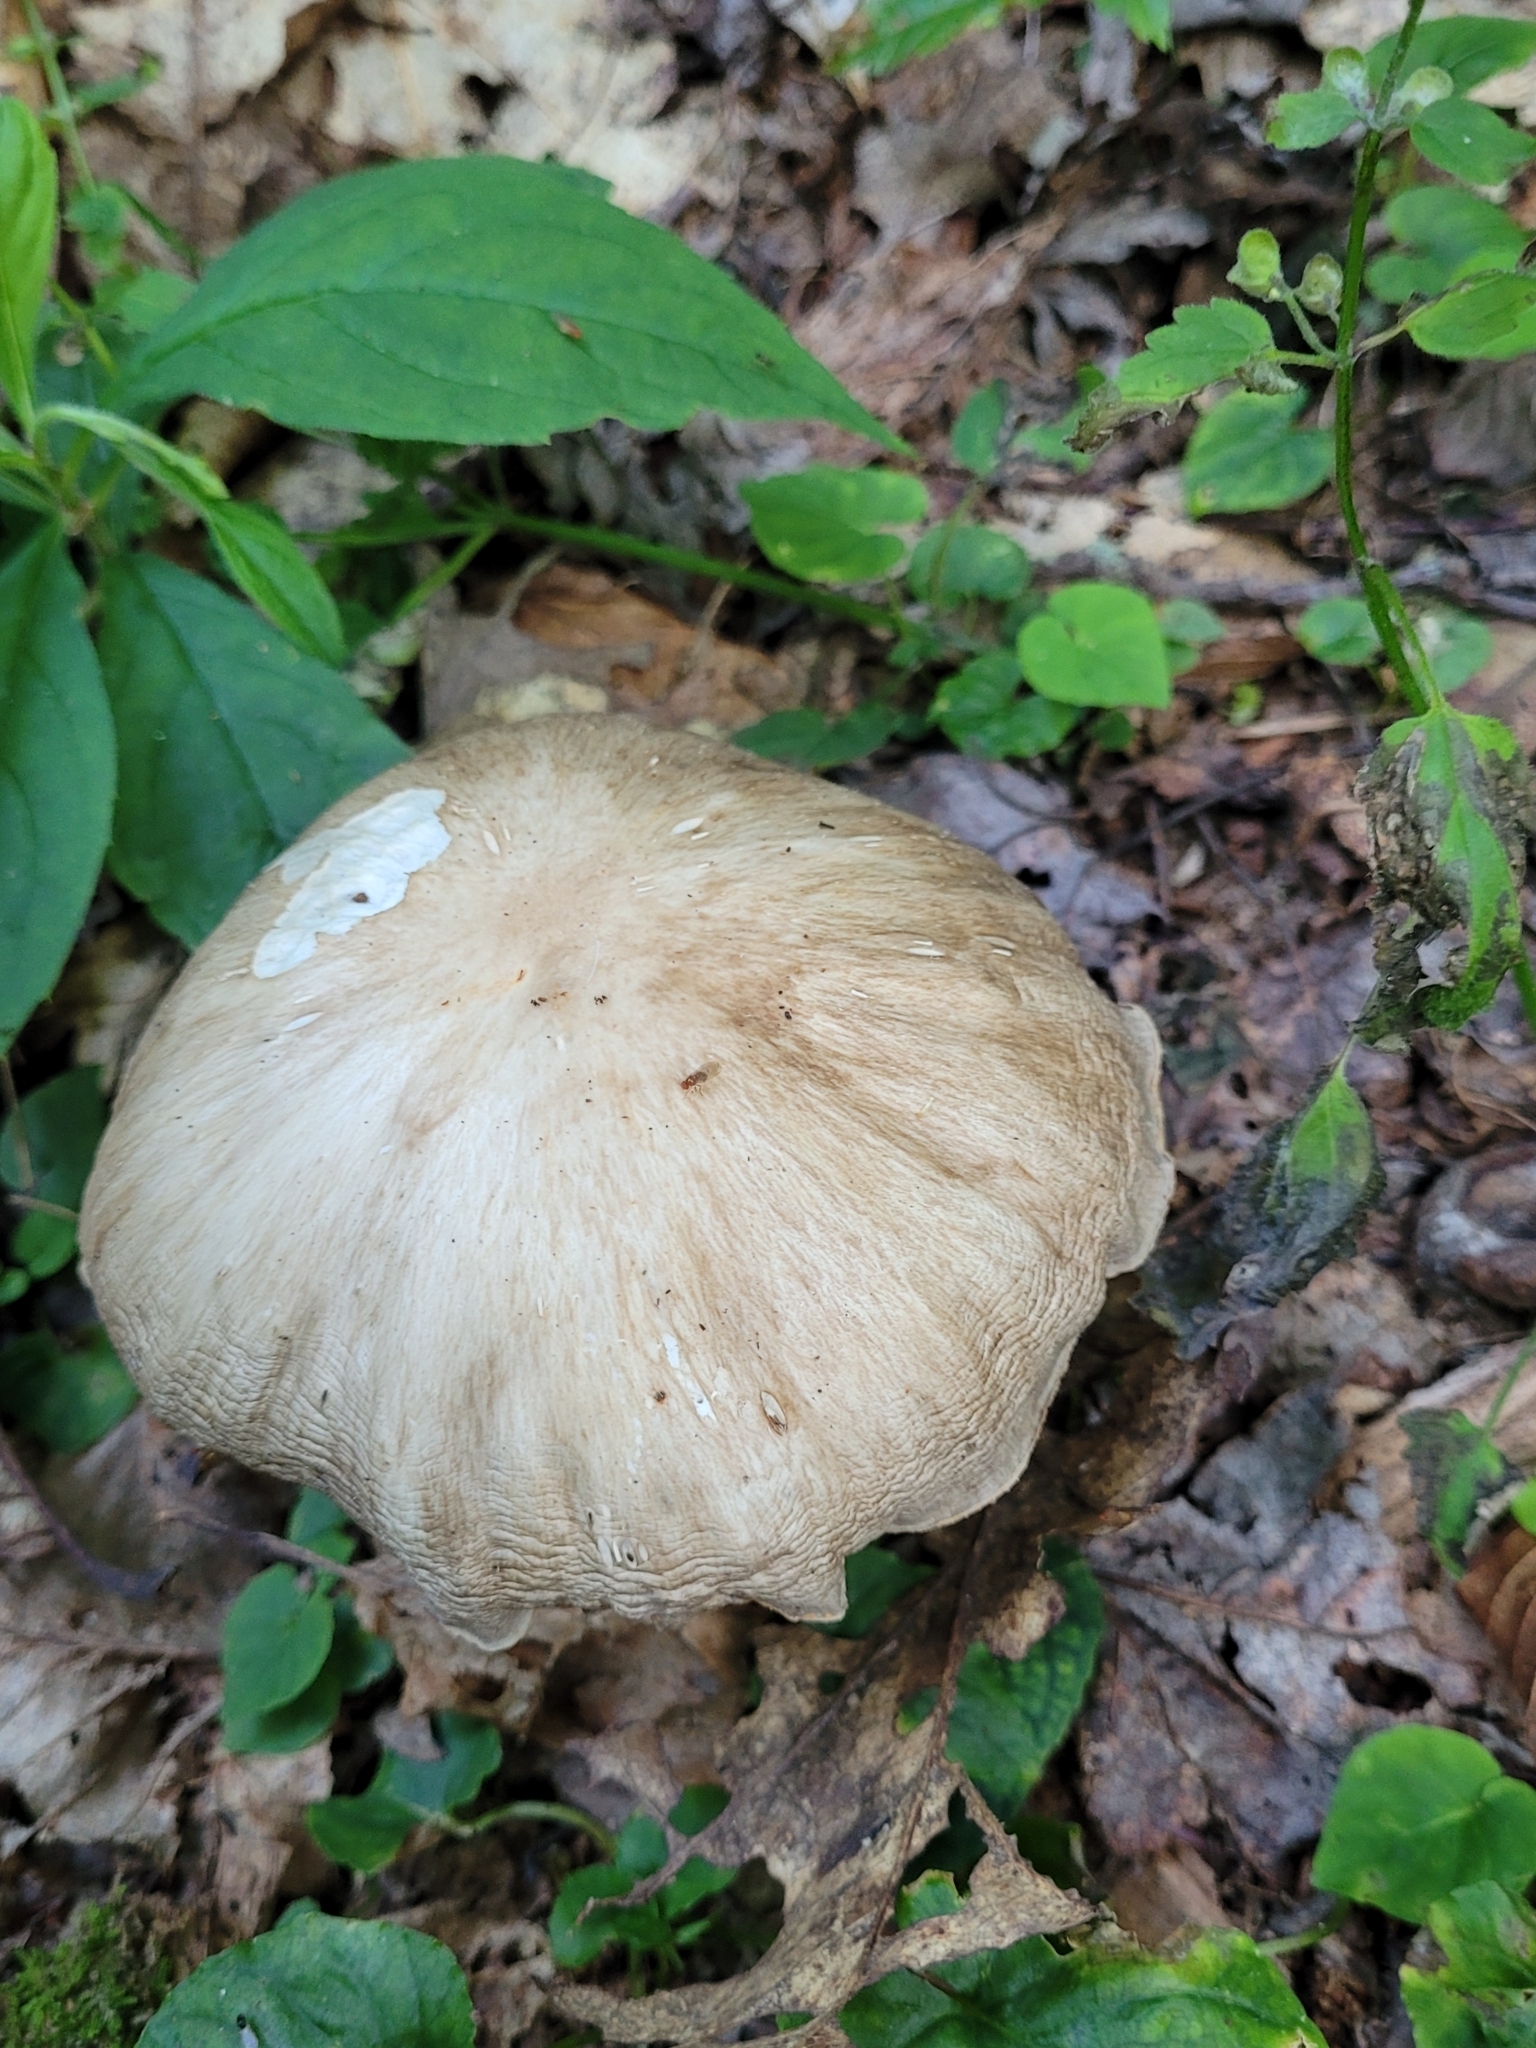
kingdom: Fungi
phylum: Basidiomycota
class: Agaricomycetes
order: Agaricales
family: Tricholomataceae
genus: Megacollybia
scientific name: Megacollybia rodmanii
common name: Eastern american platterful mushroom
